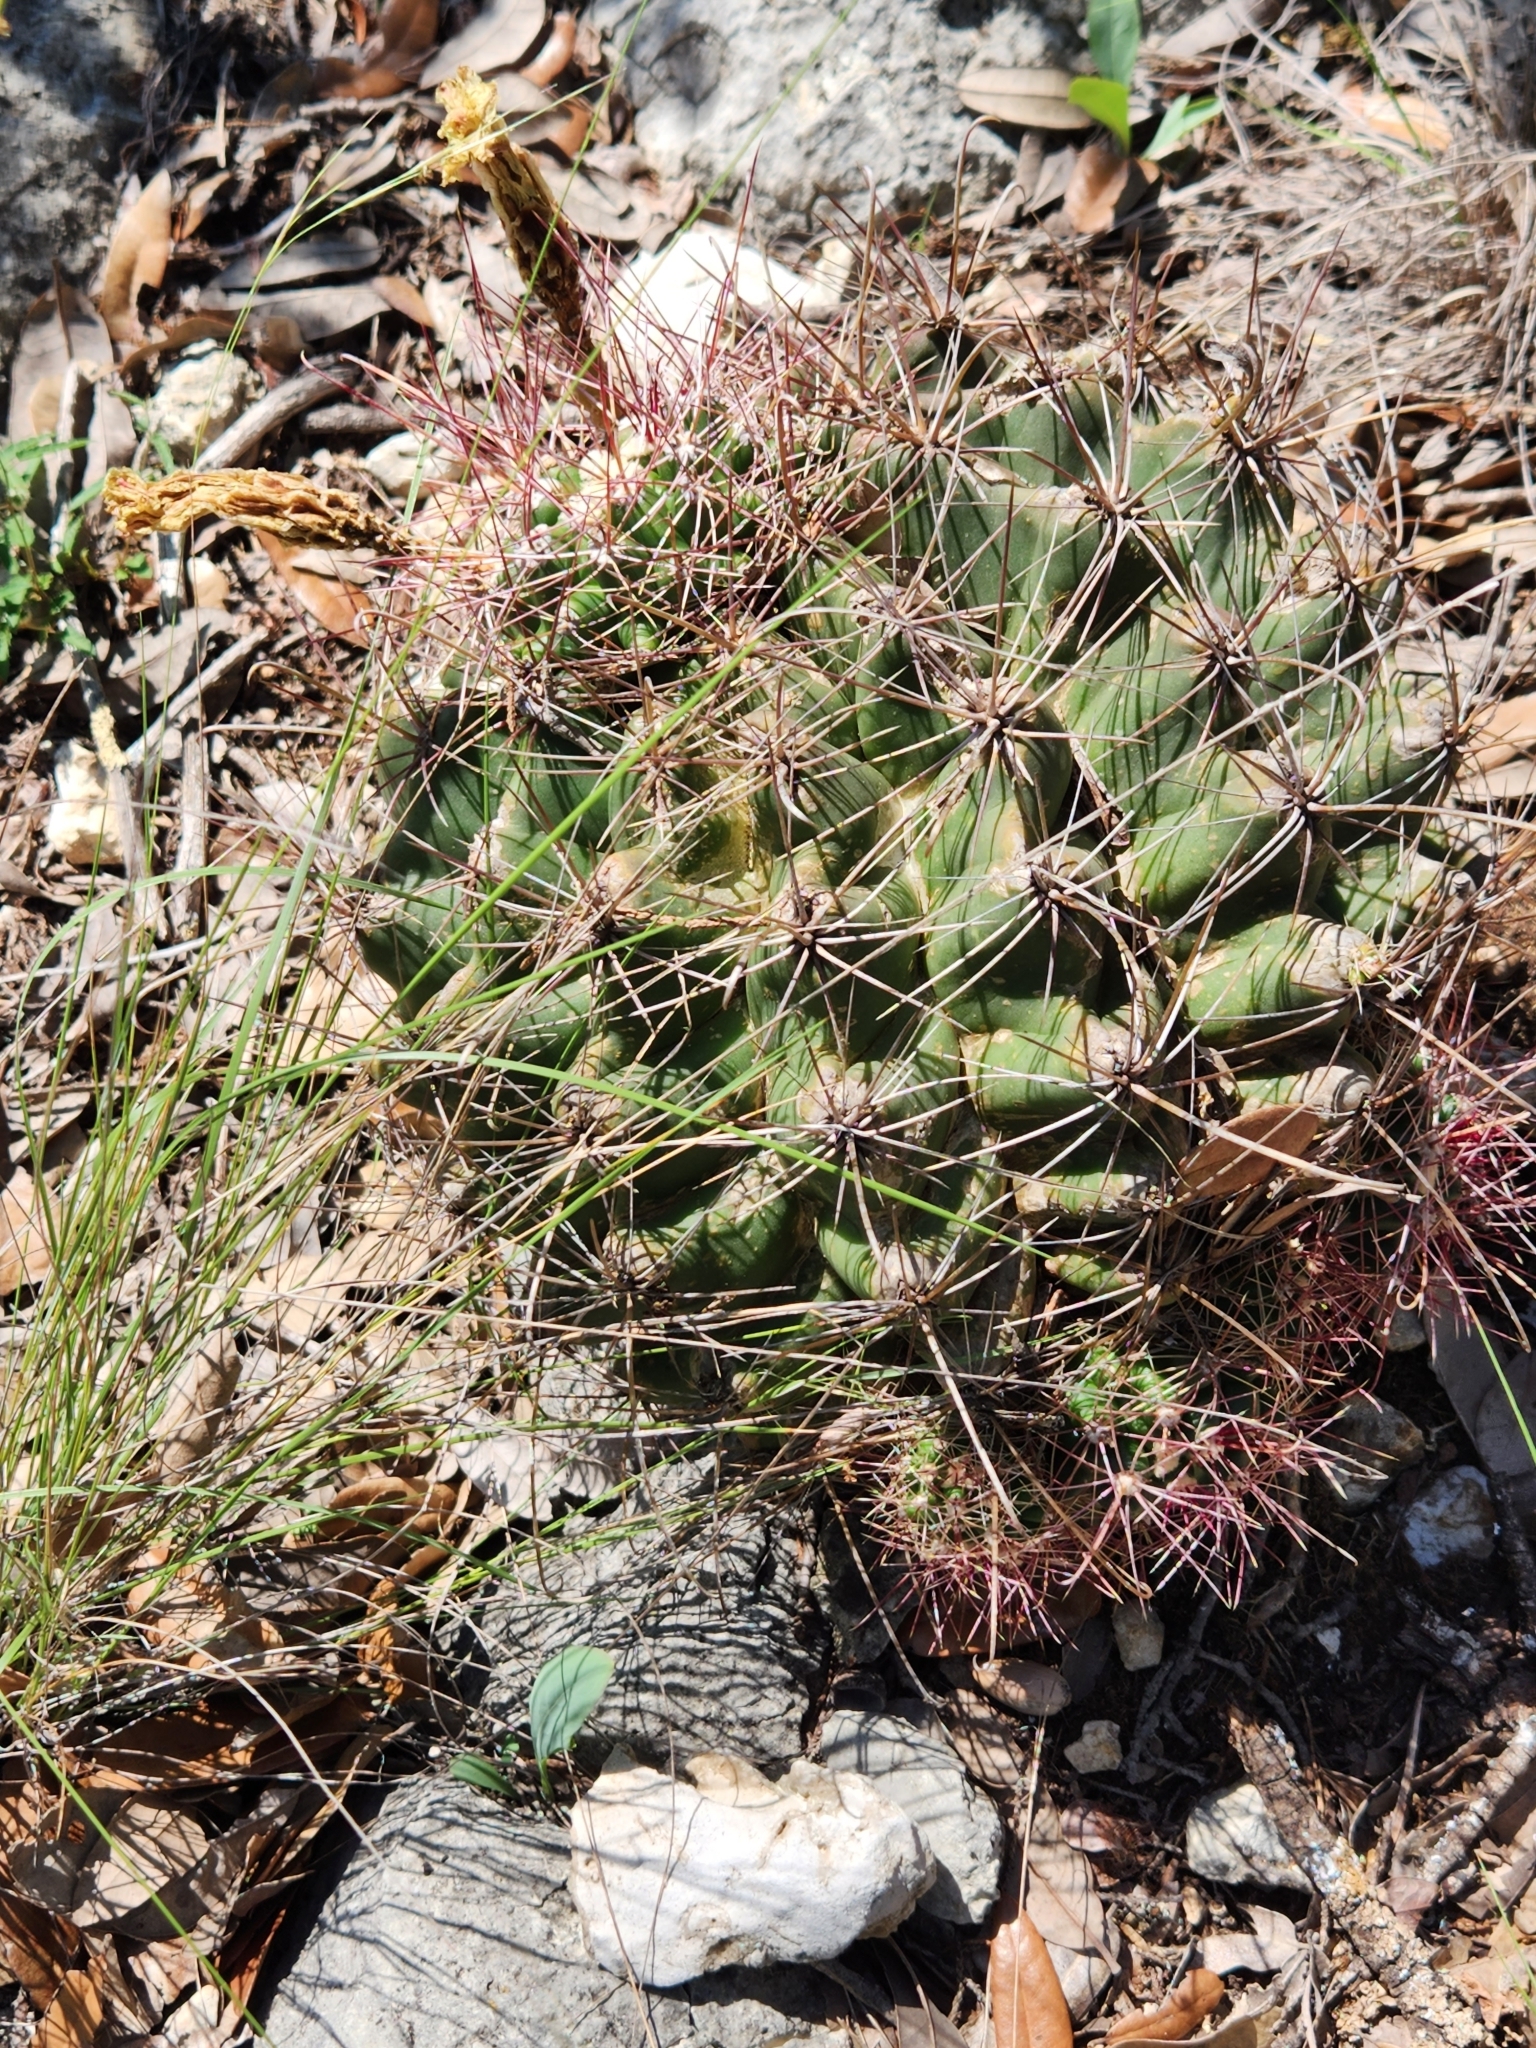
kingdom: Plantae
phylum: Tracheophyta
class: Magnoliopsida
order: Caryophyllales
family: Cactaceae
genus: Bisnaga
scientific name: Bisnaga hamatacantha
